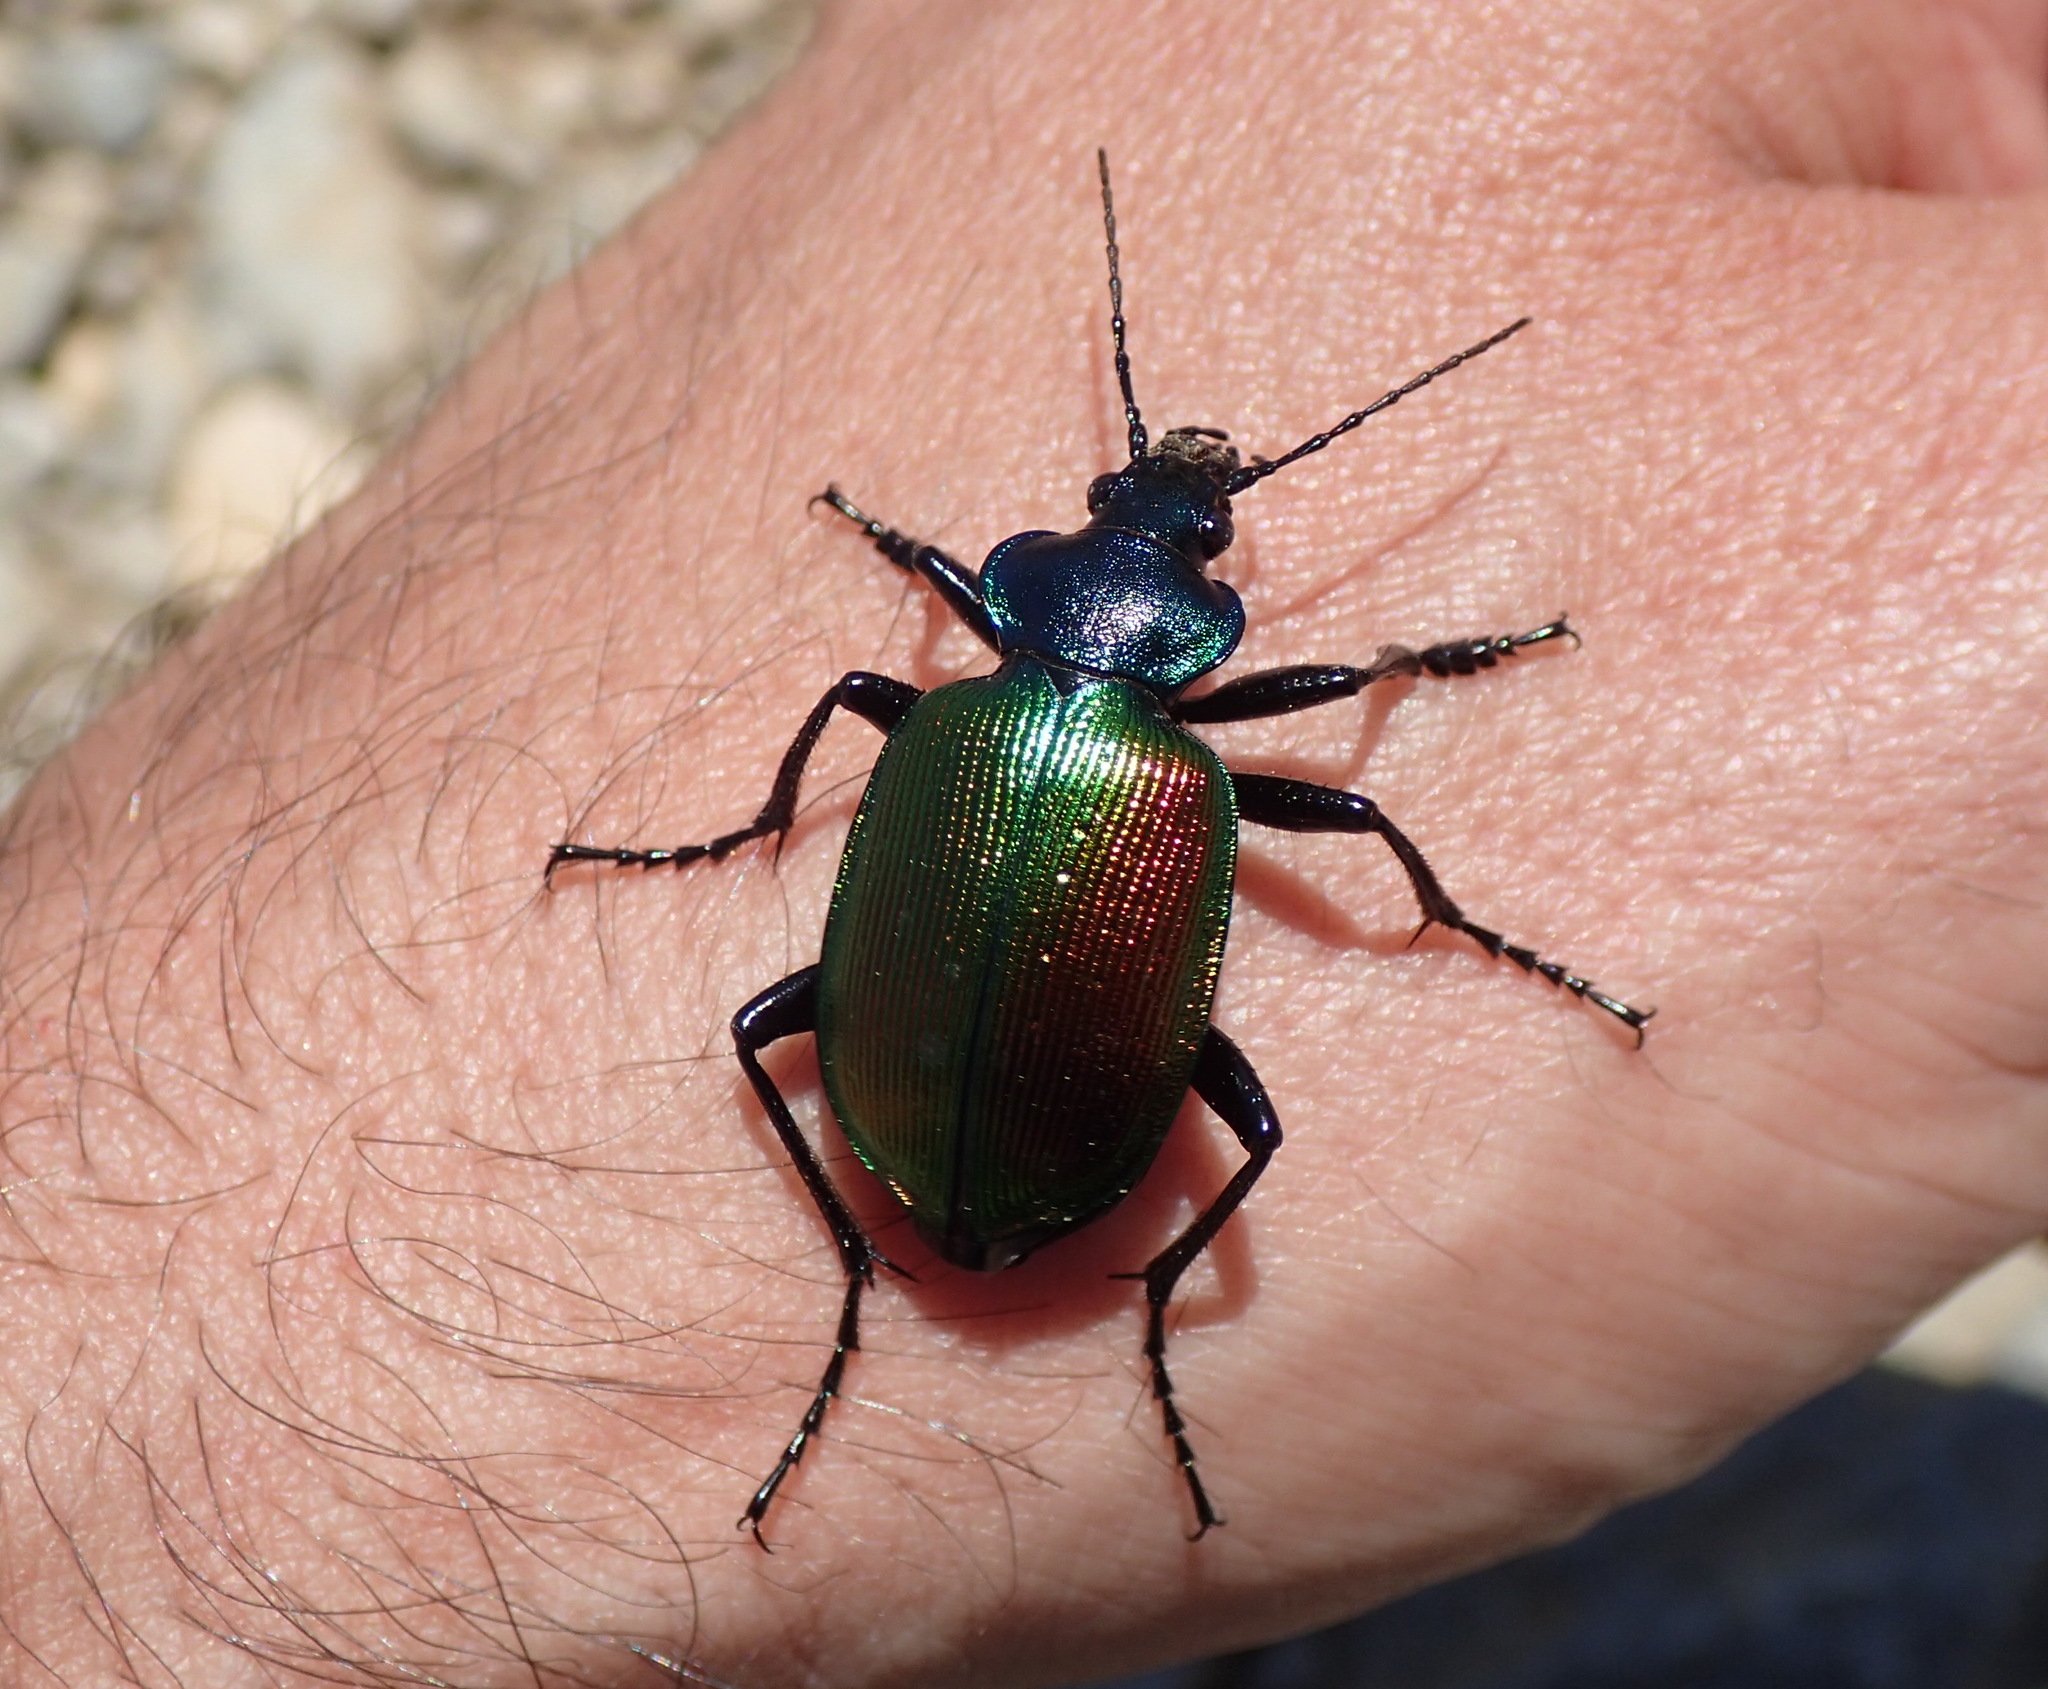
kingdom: Animalia
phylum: Arthropoda
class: Insecta
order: Coleoptera
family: Carabidae
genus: Calosoma
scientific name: Calosoma sycophanta
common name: Forest caterpillar hunter
